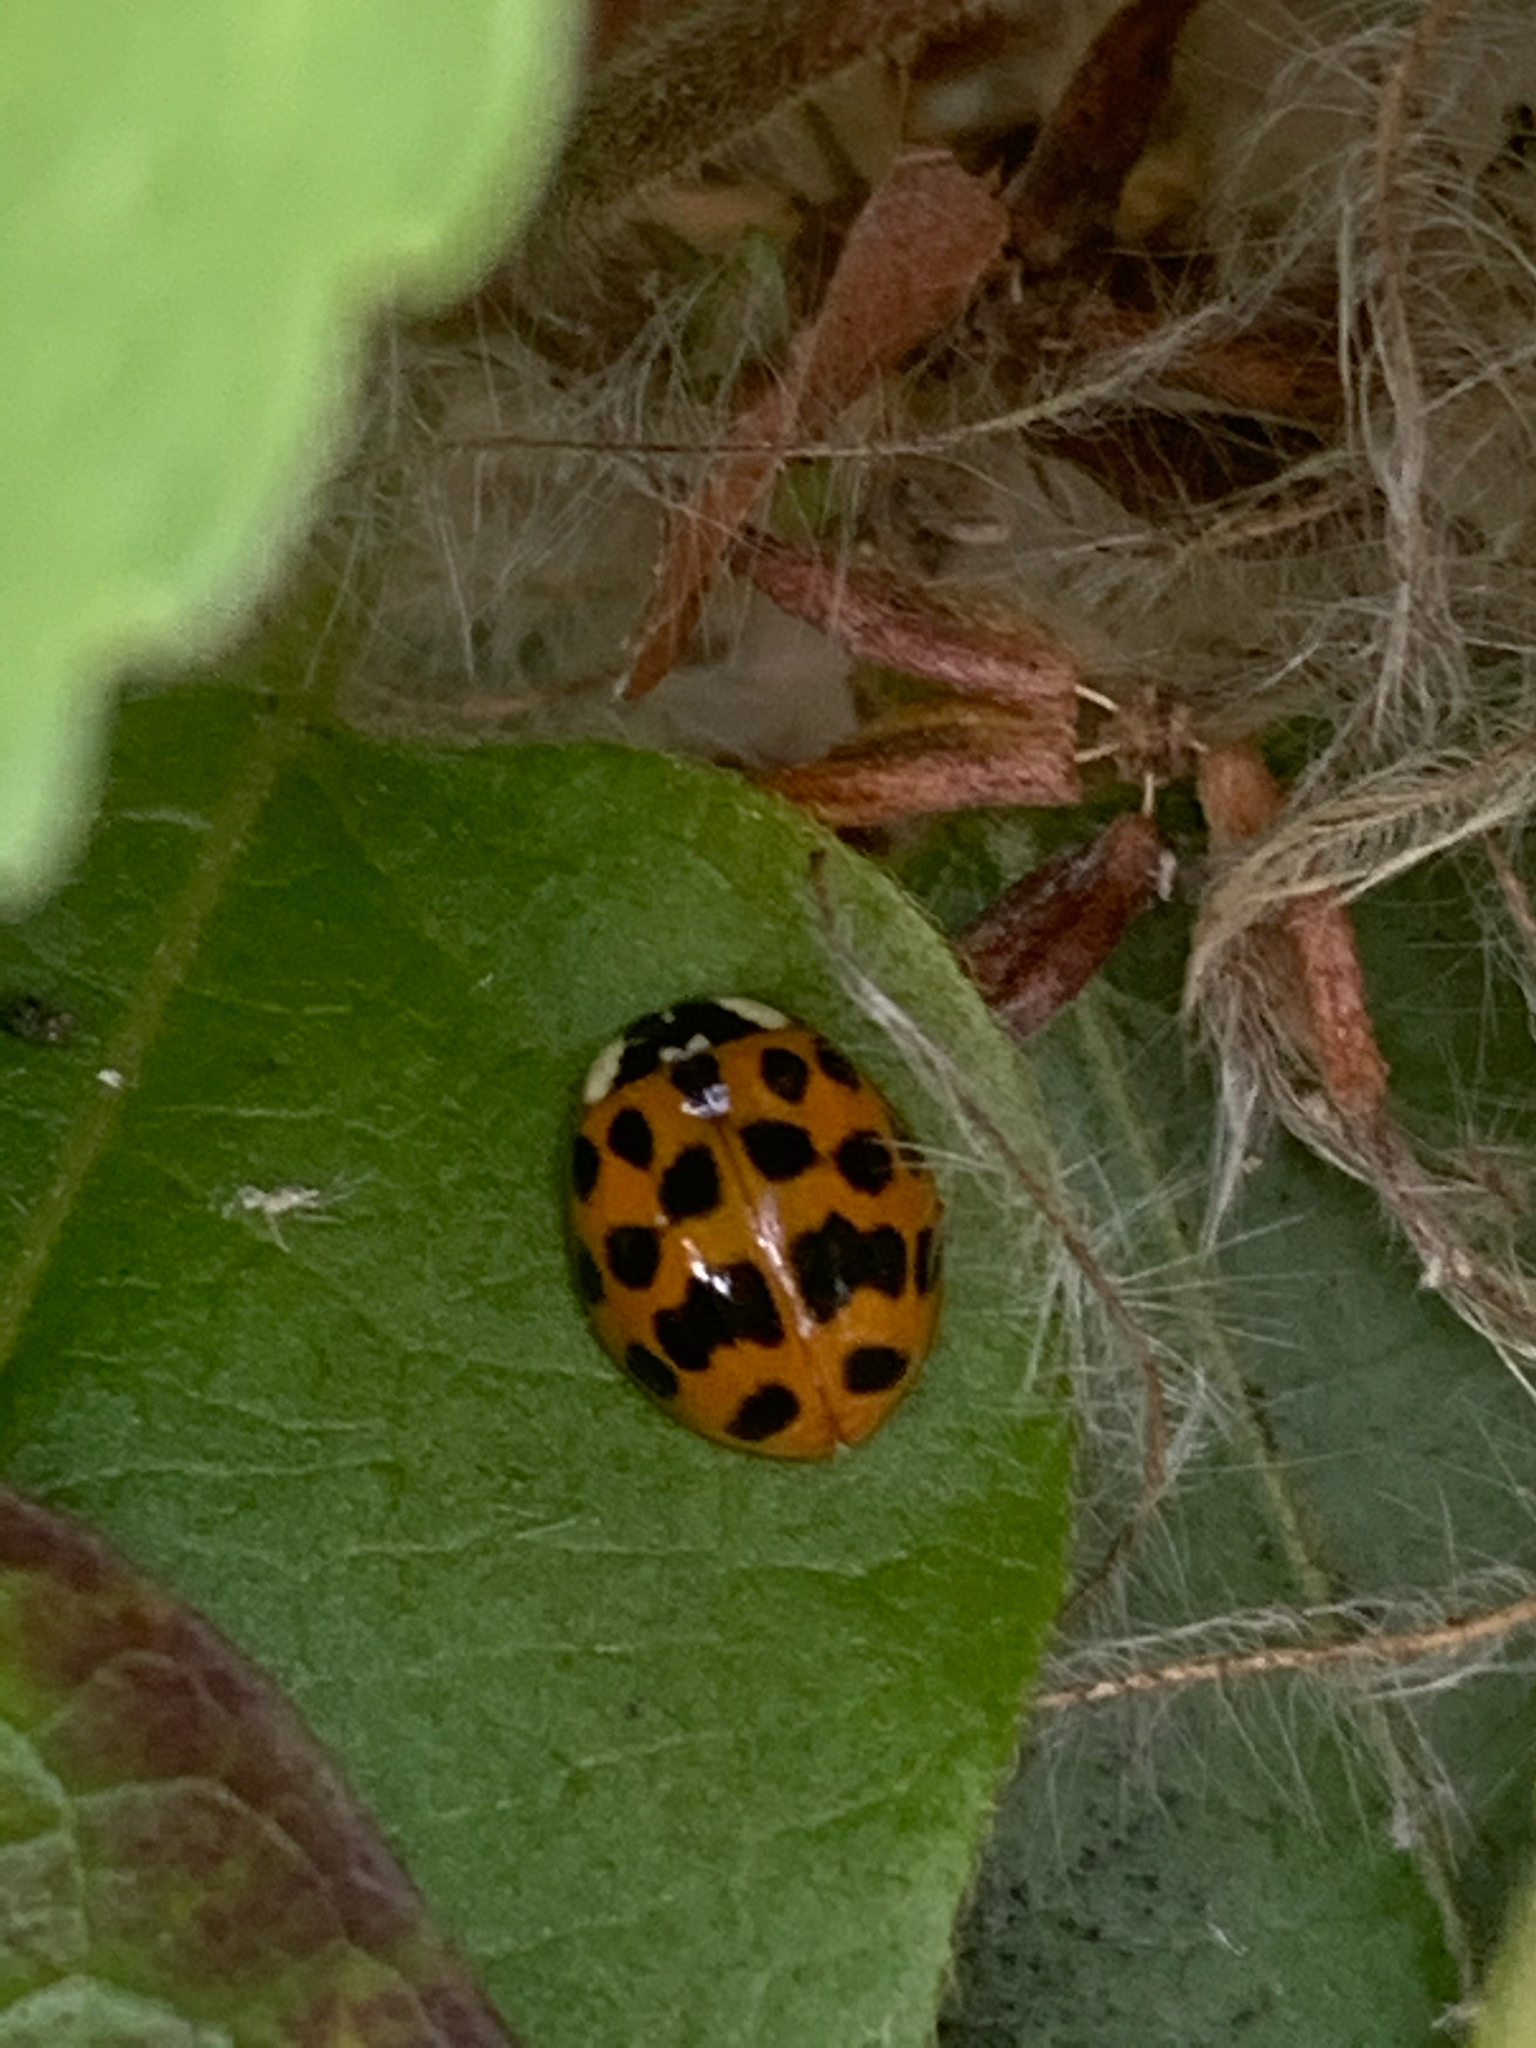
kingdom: Animalia
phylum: Arthropoda
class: Insecta
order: Coleoptera
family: Coccinellidae
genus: Harmonia
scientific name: Harmonia axyridis
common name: Harlequin ladybird
